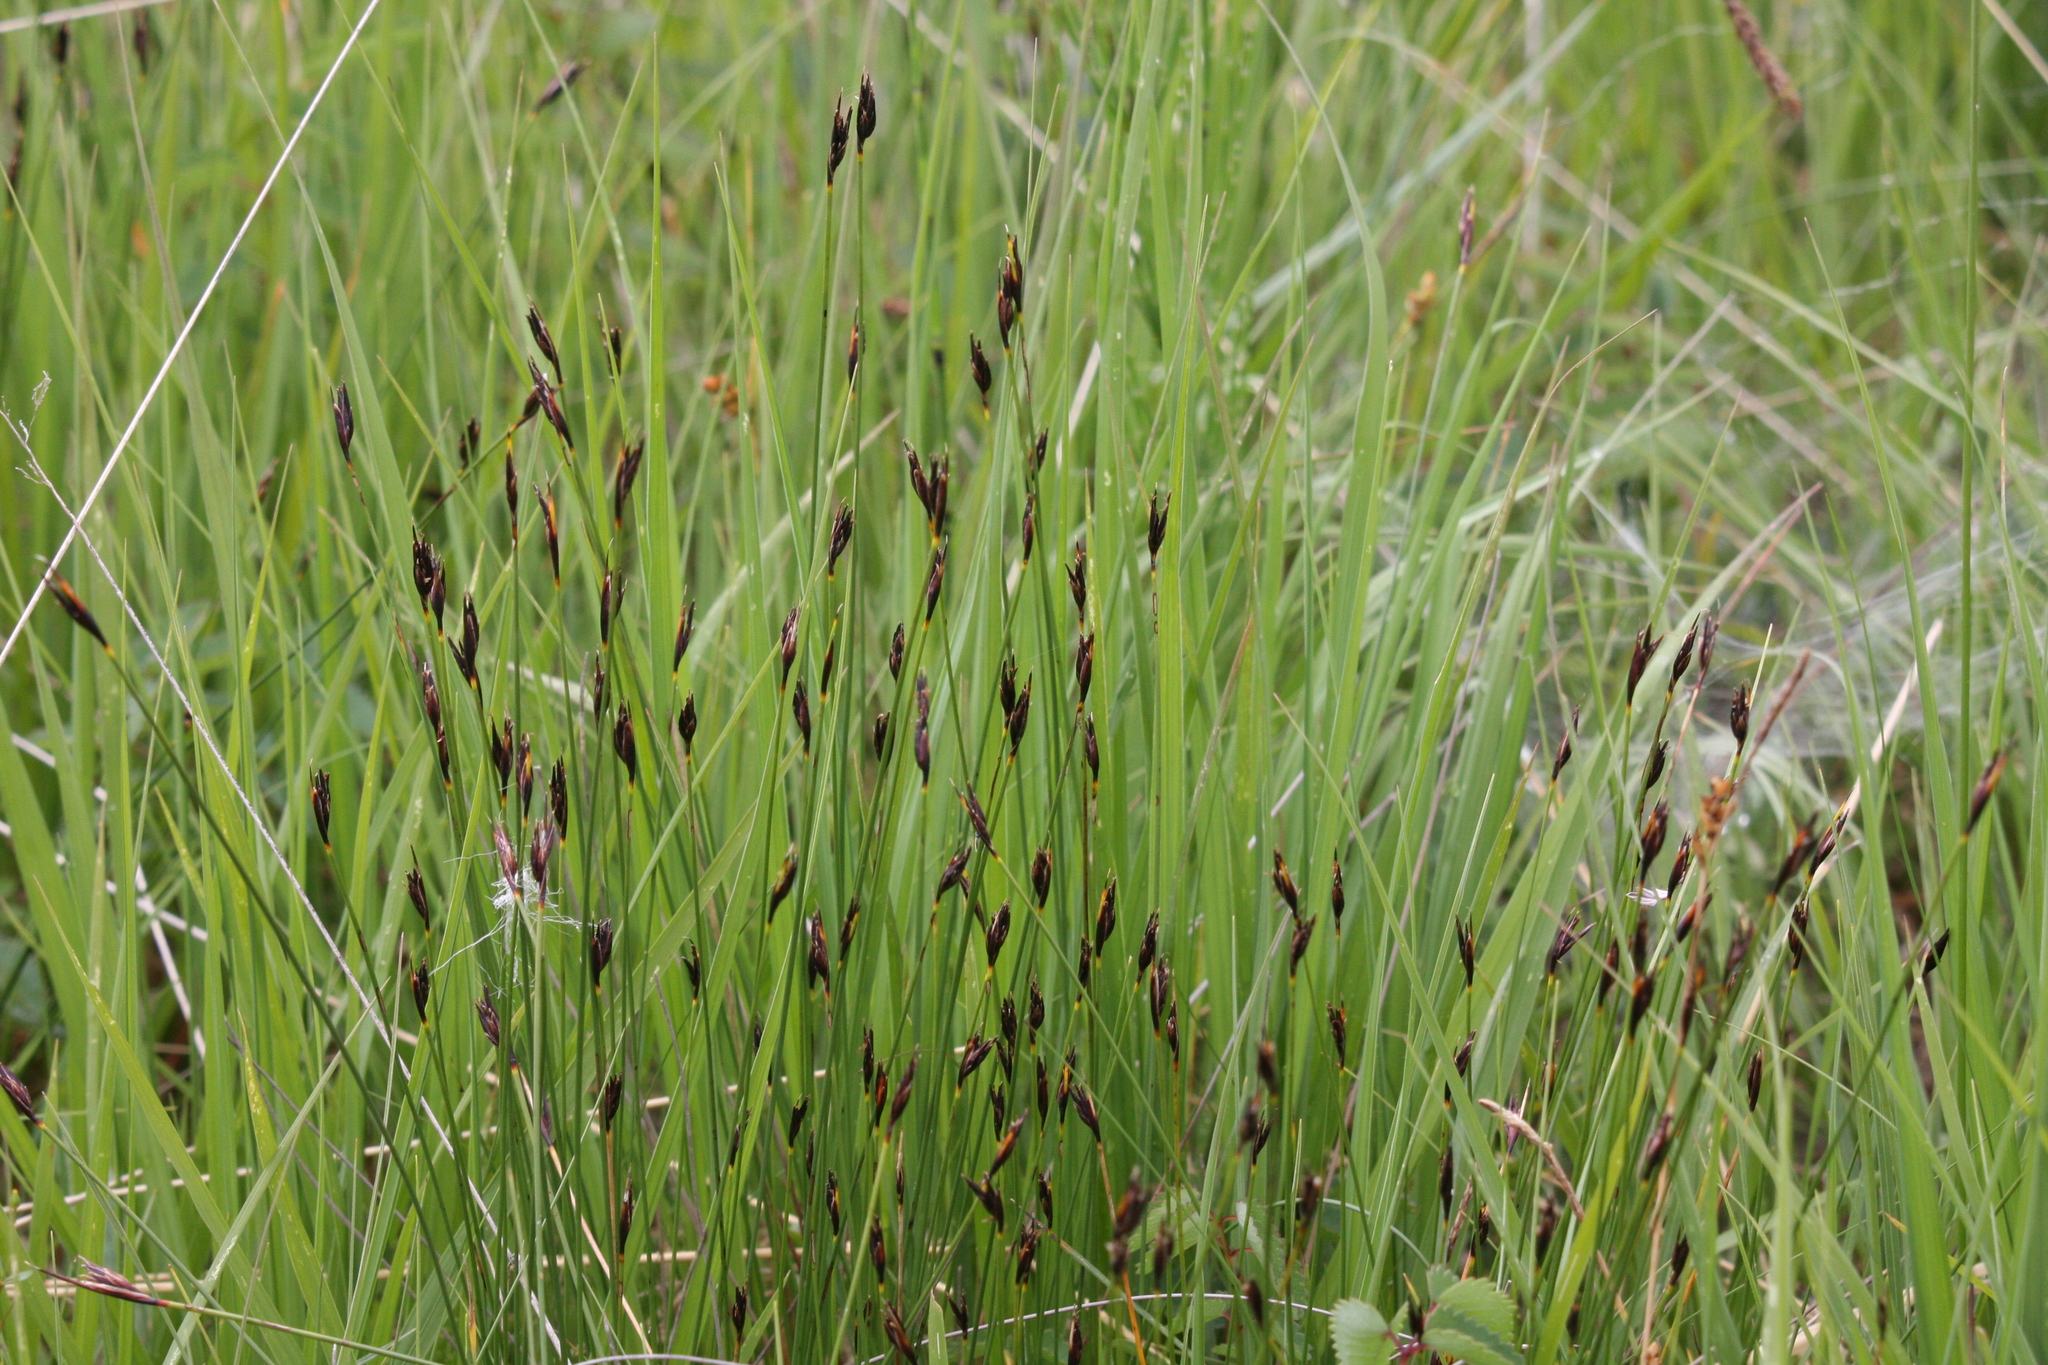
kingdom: Plantae
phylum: Tracheophyta
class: Liliopsida
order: Poales
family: Cyperaceae
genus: Schoenus
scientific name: Schoenus nigricans
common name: Black bog-rush
